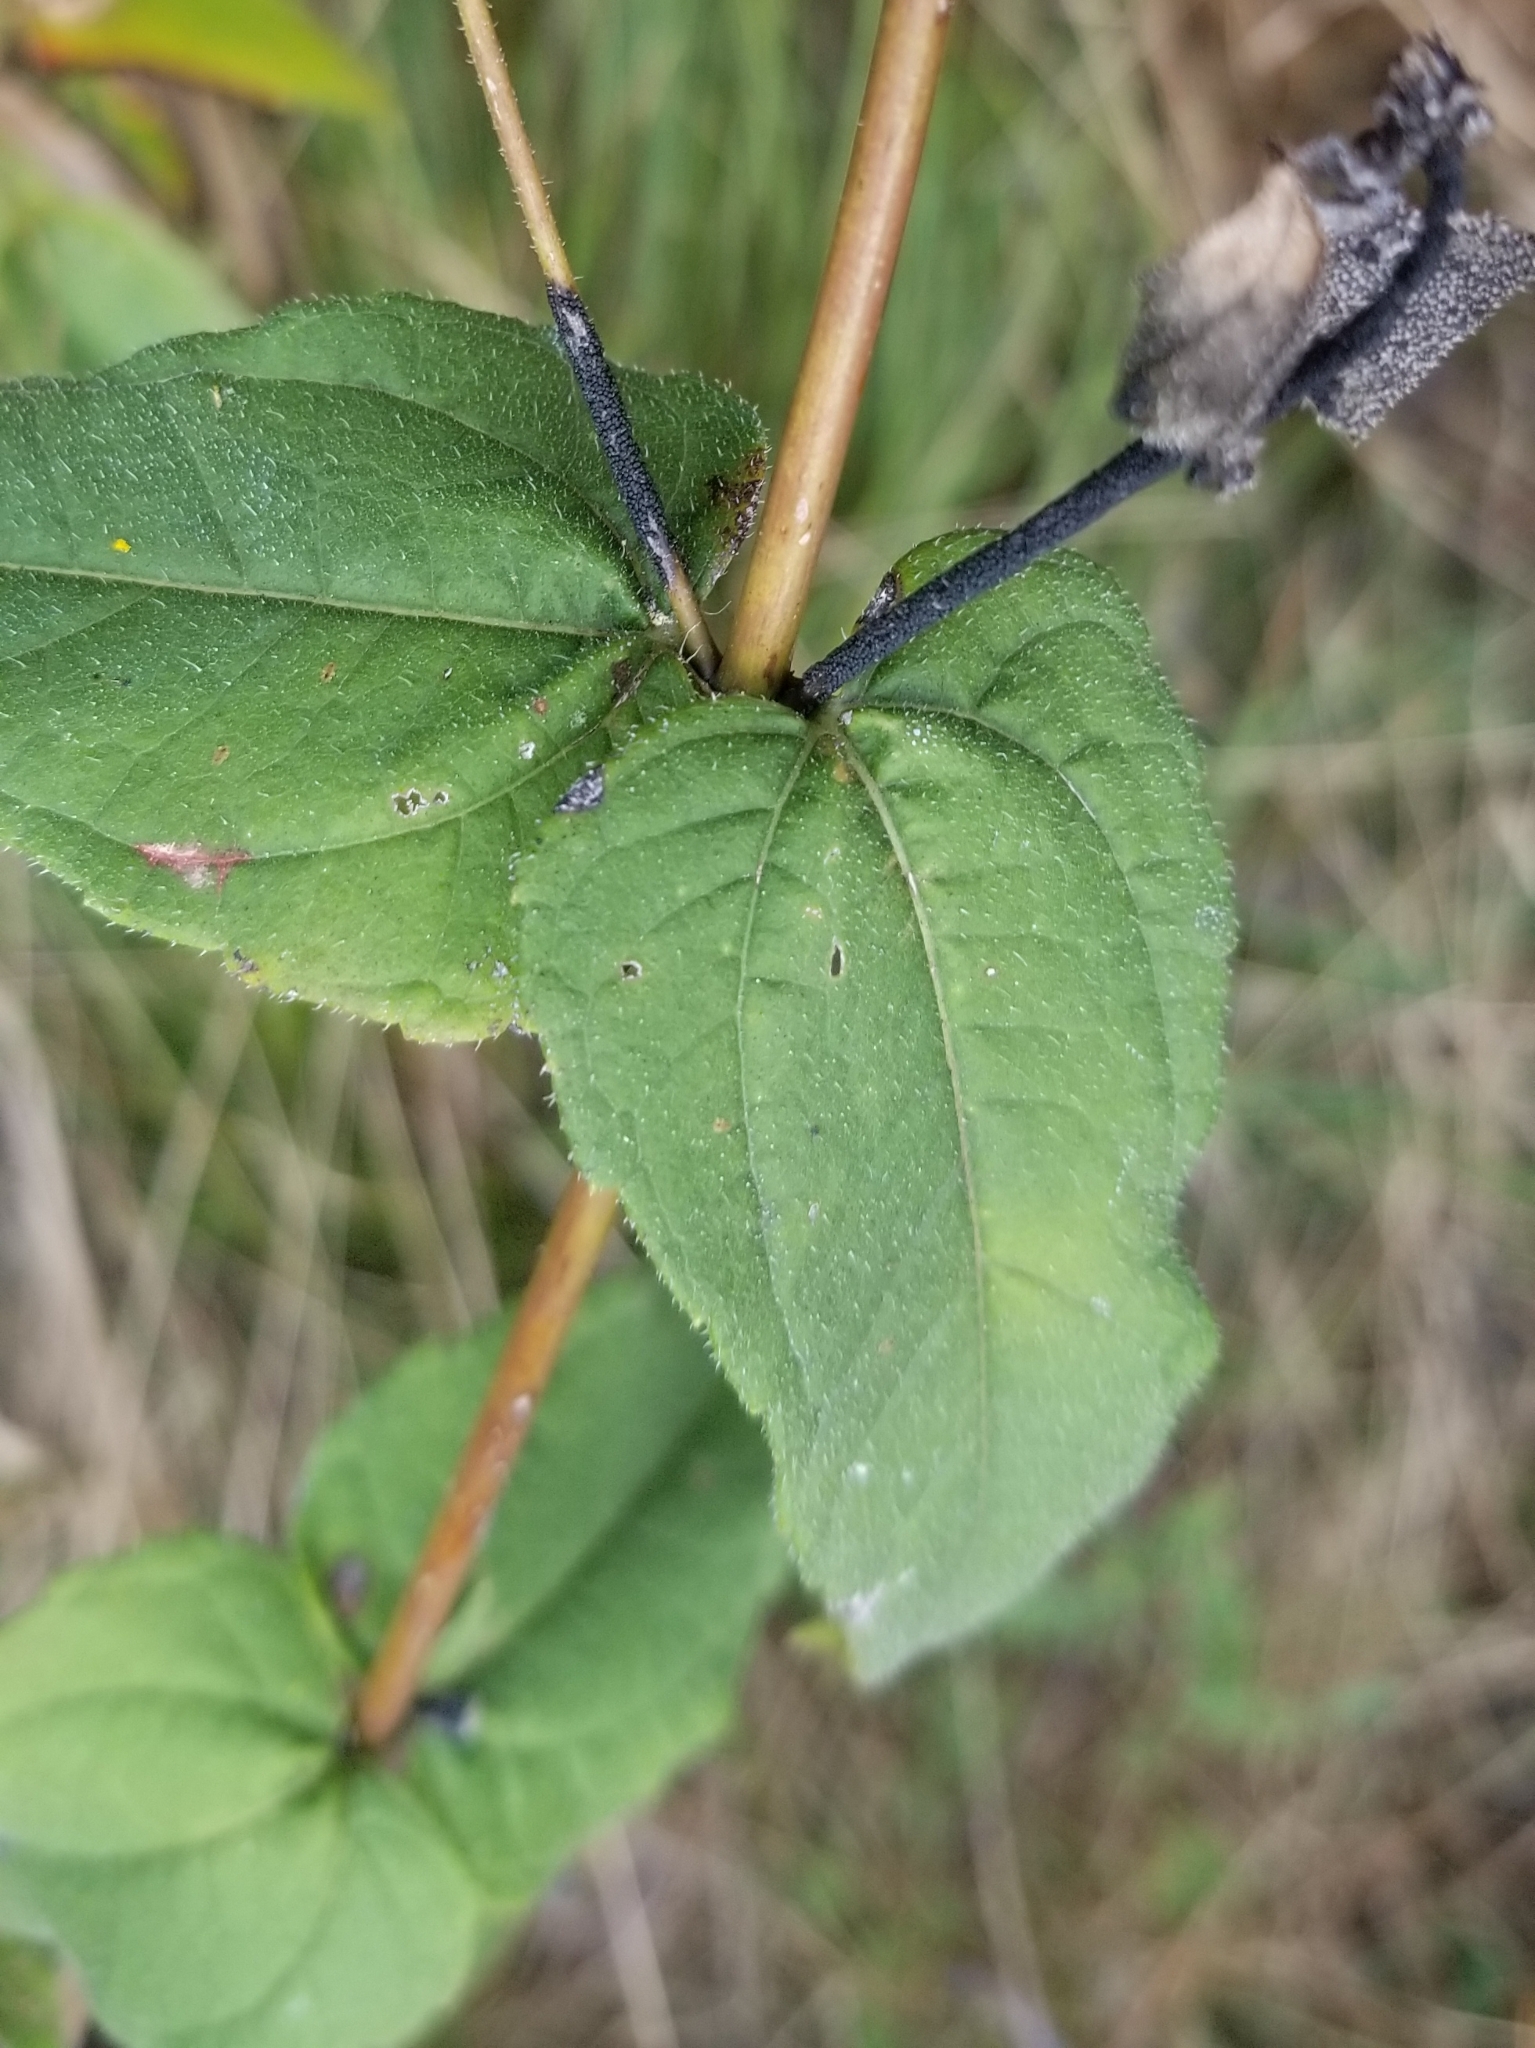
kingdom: Plantae
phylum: Tracheophyta
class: Magnoliopsida
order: Asterales
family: Asteraceae
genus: Helianthus
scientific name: Helianthus divaricatus
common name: Divergent sunflower
